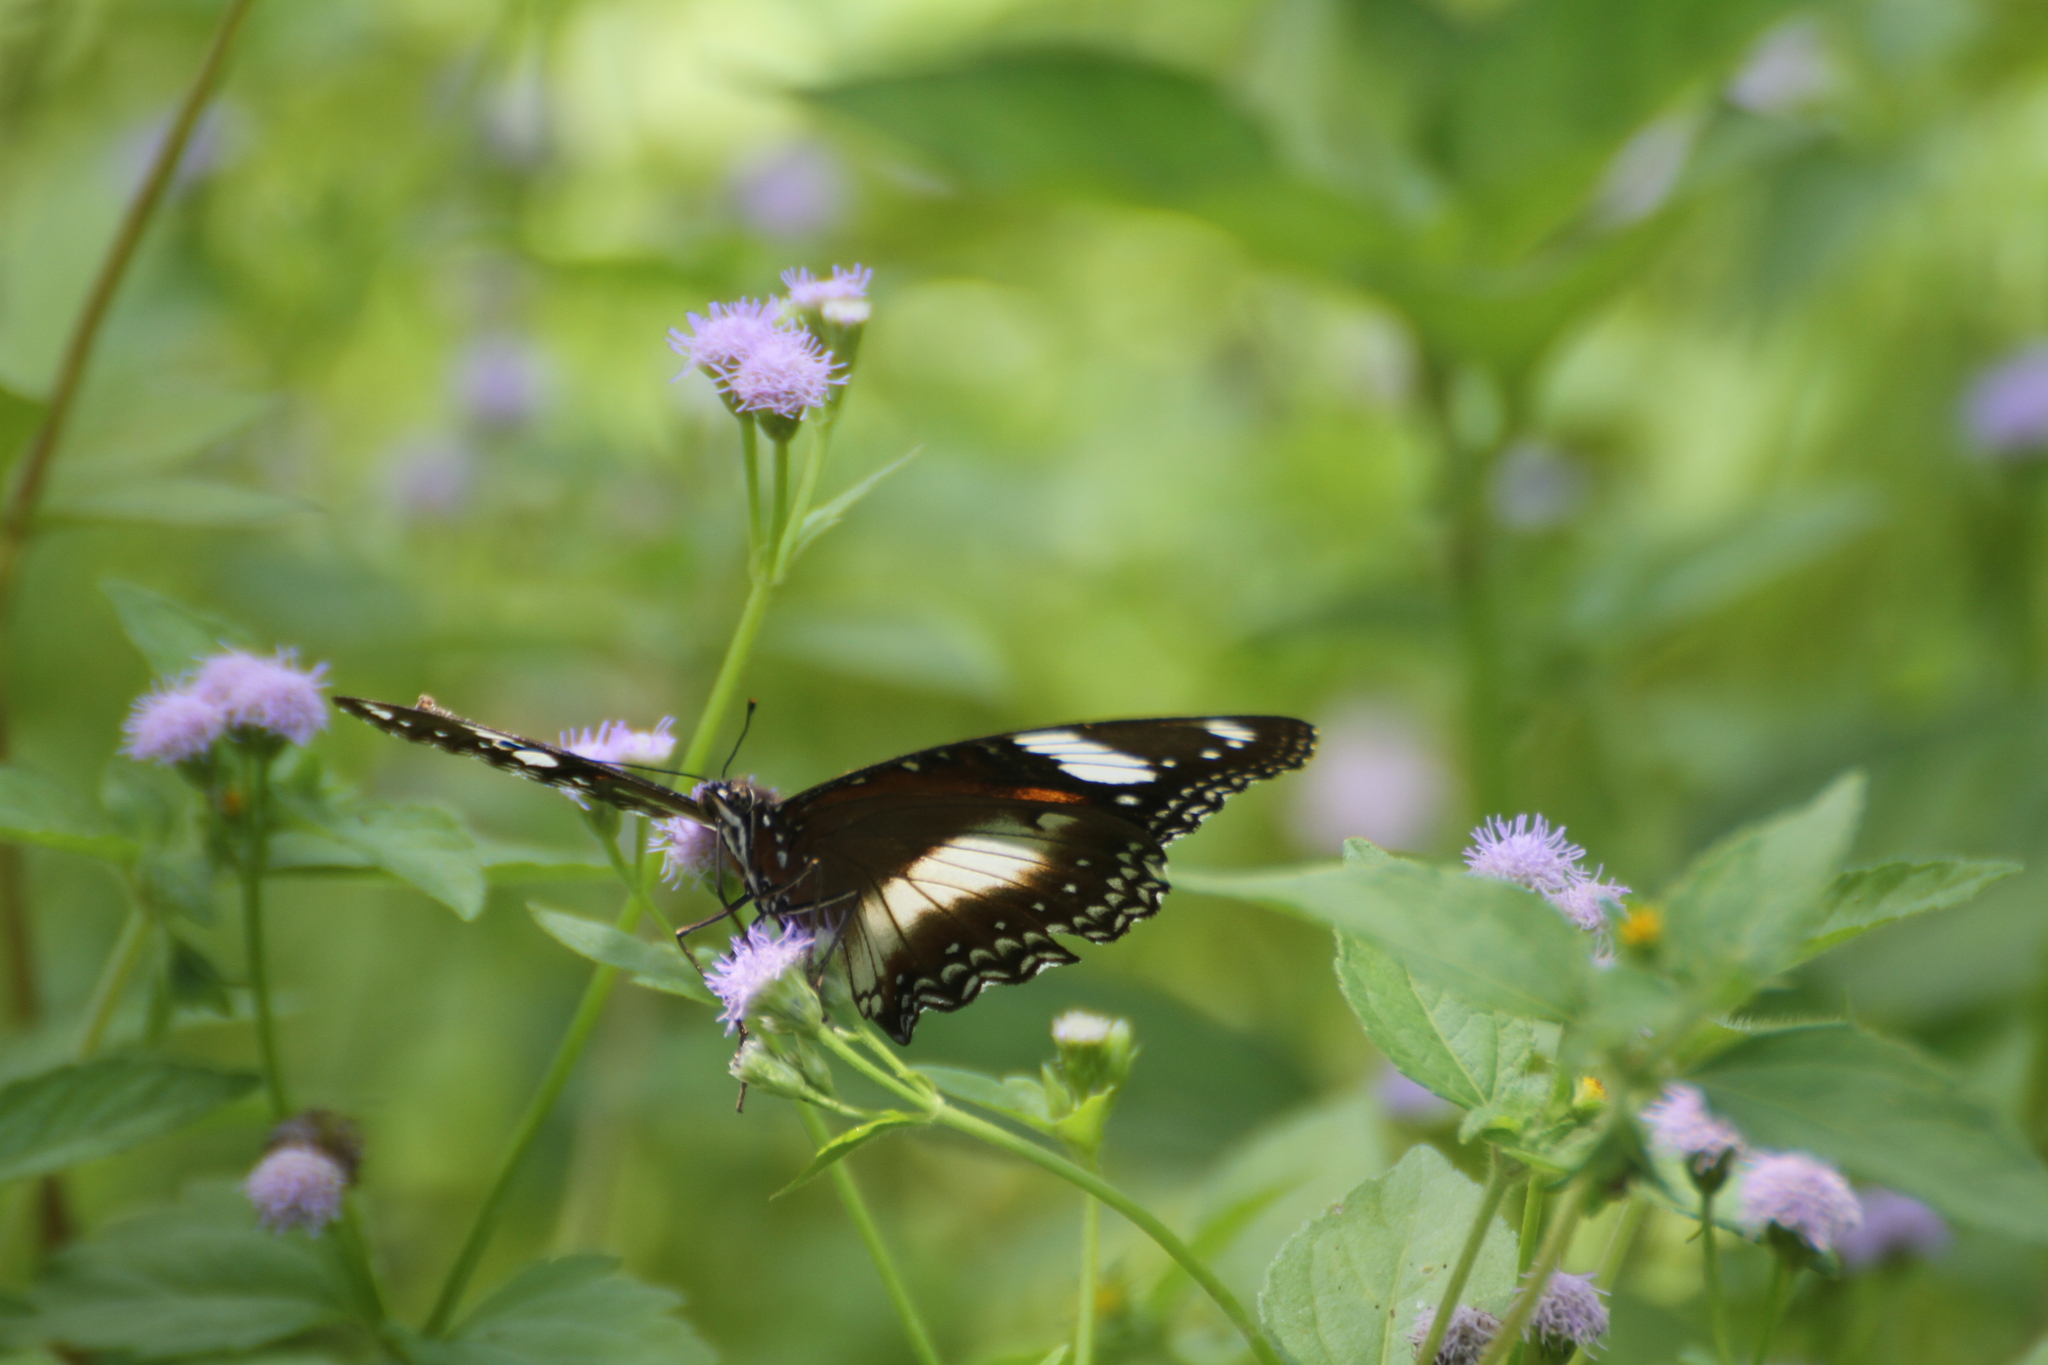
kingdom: Animalia
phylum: Arthropoda
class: Insecta
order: Lepidoptera
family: Nymphalidae
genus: Hypolimnas
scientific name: Hypolimnas bolina
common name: Great eggfly
